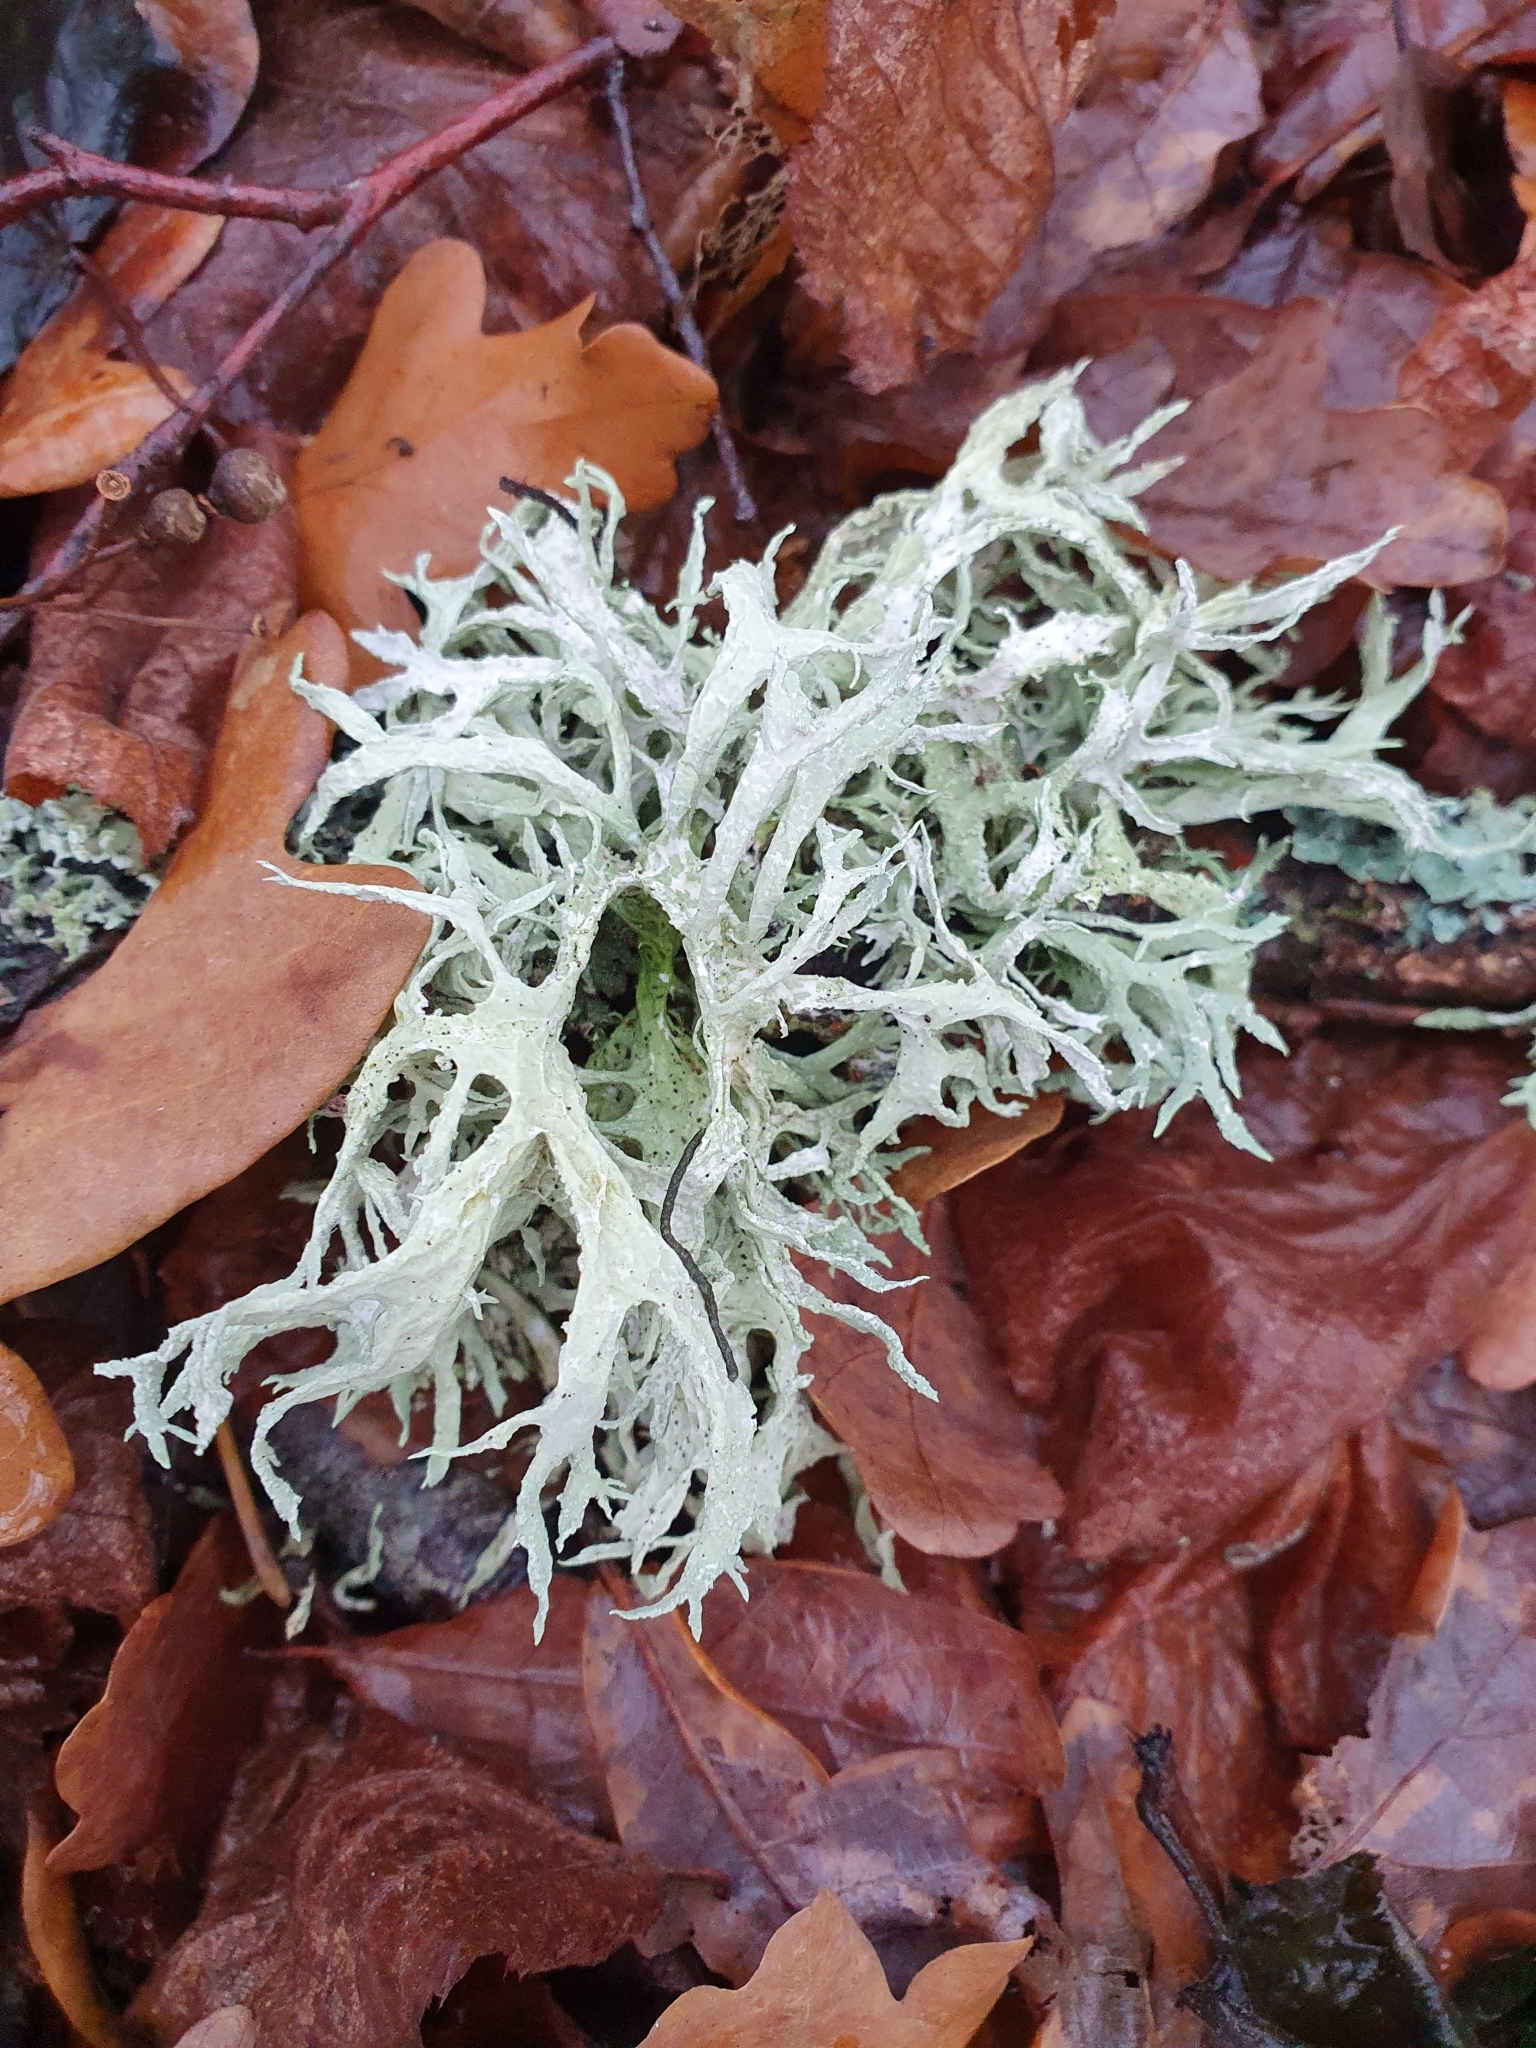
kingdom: Fungi
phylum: Ascomycota
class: Lecanoromycetes
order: Lecanorales
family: Parmeliaceae
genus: Evernia
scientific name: Evernia prunastri
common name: Oak moss
